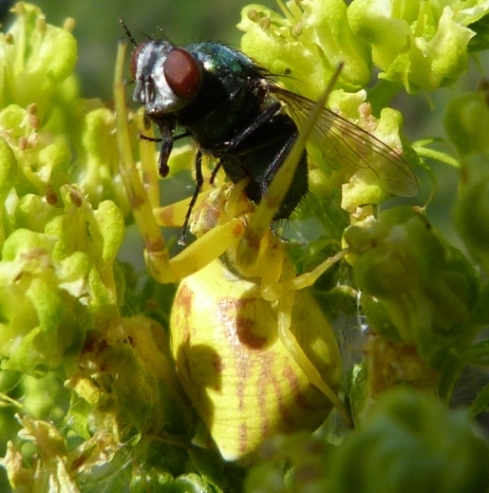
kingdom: Animalia
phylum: Arthropoda
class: Arachnida
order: Araneae
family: Thomisidae
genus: Thomisus
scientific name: Thomisus onustus
